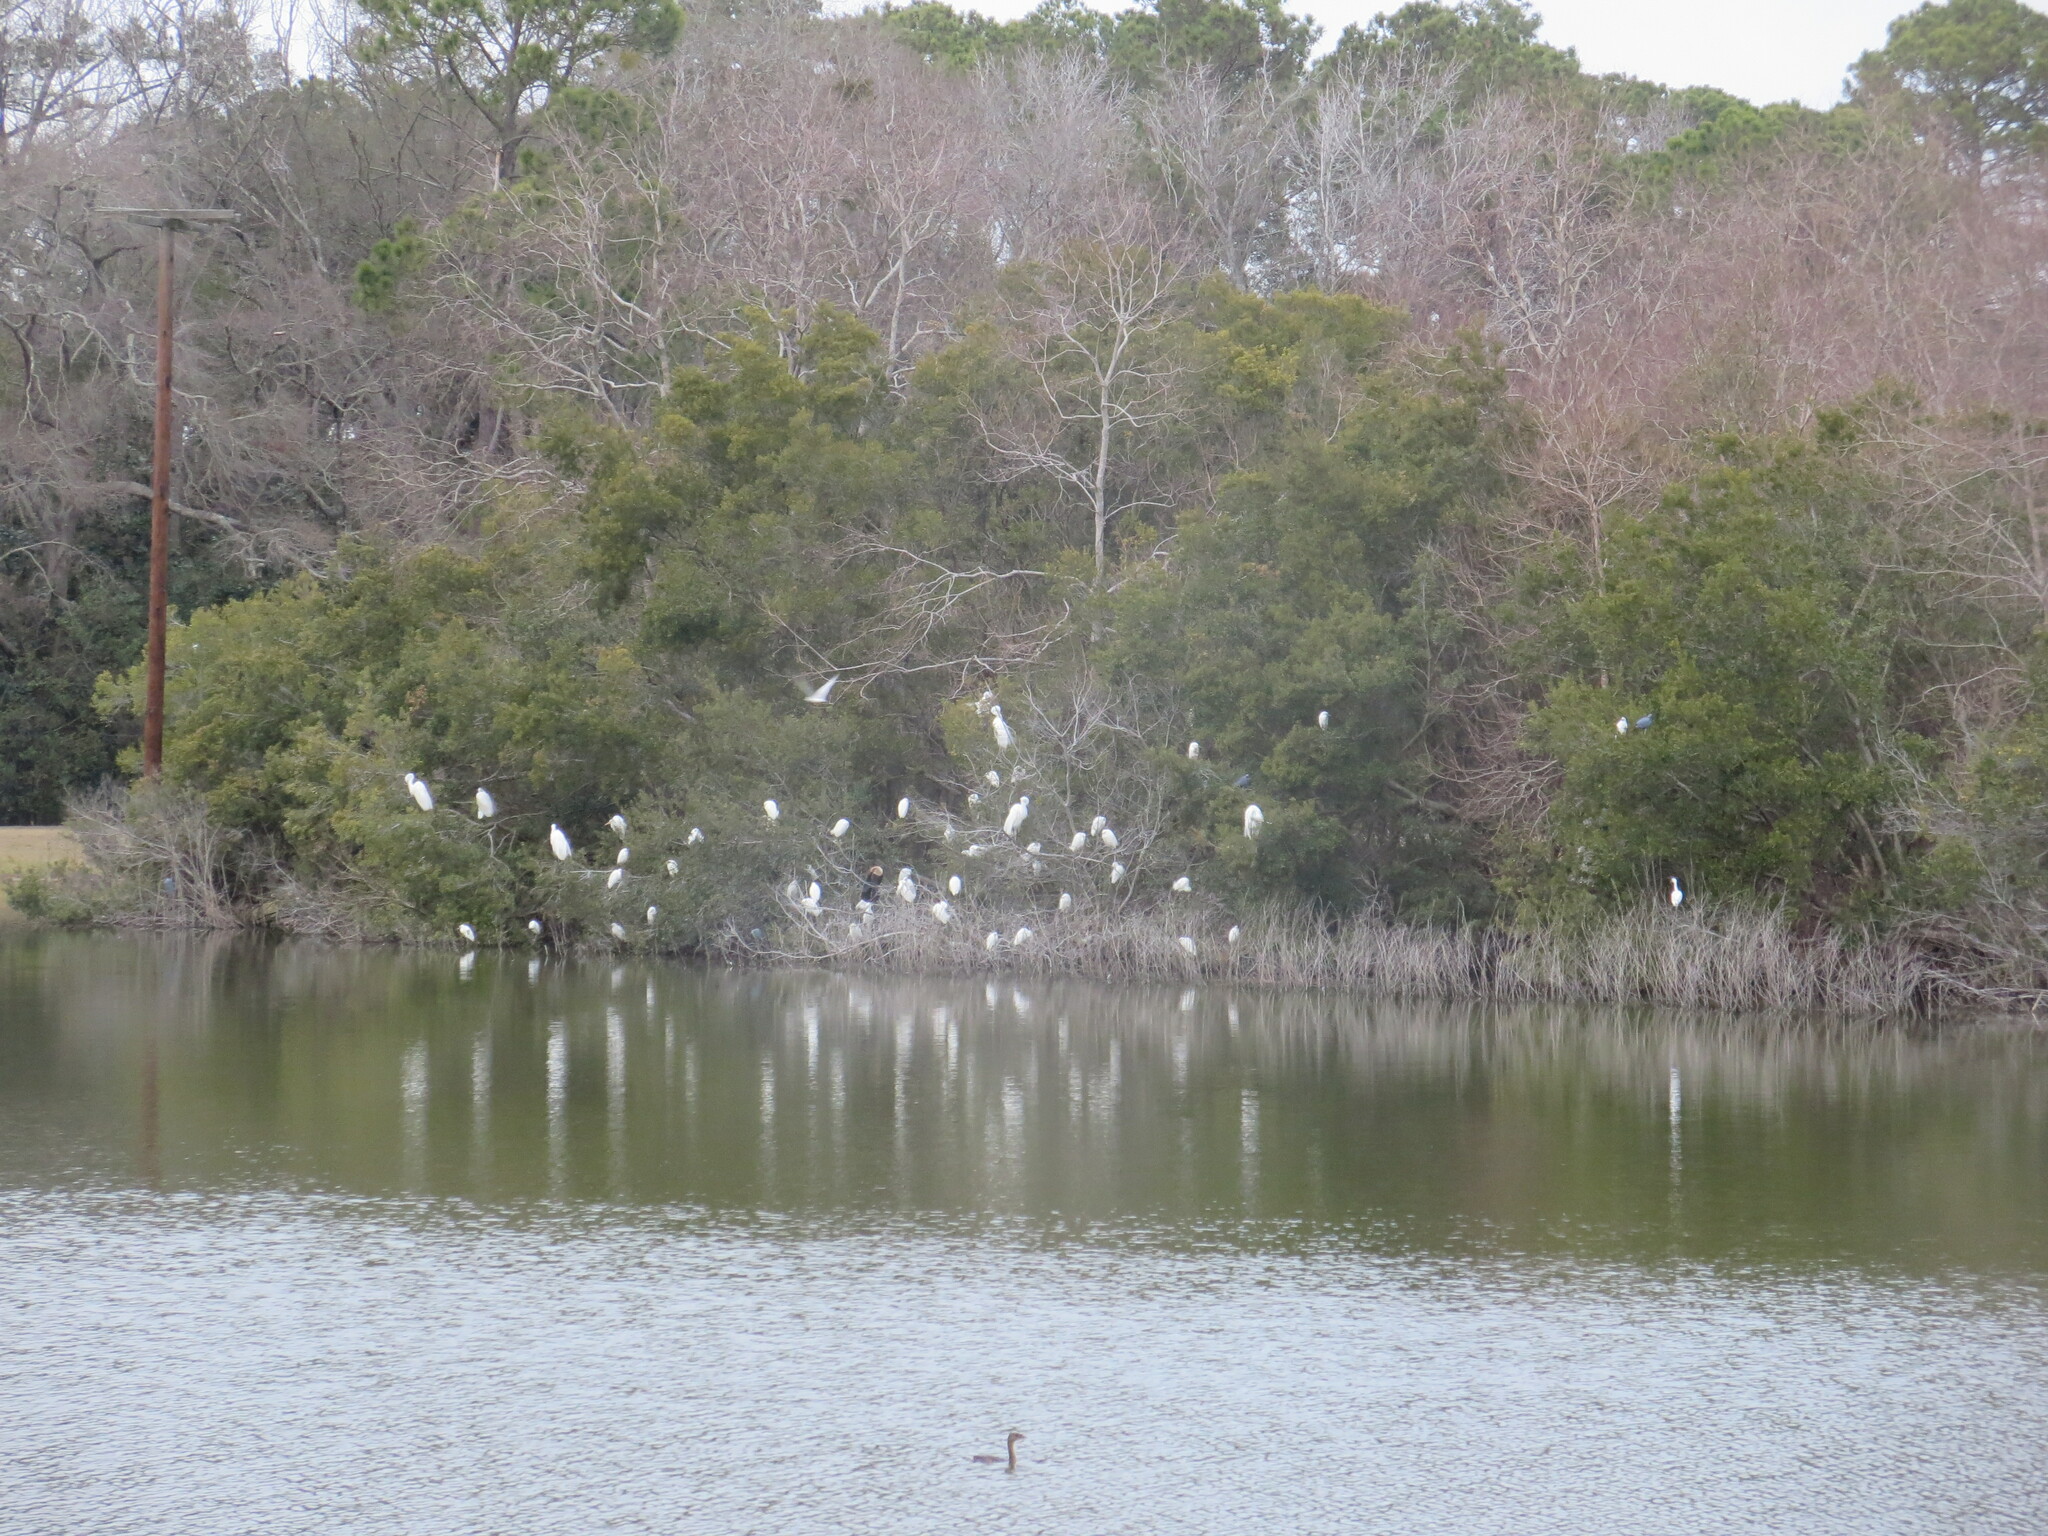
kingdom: Animalia
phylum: Chordata
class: Aves
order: Suliformes
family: Anhingidae
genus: Anhinga
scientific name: Anhinga anhinga
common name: Anhinga
